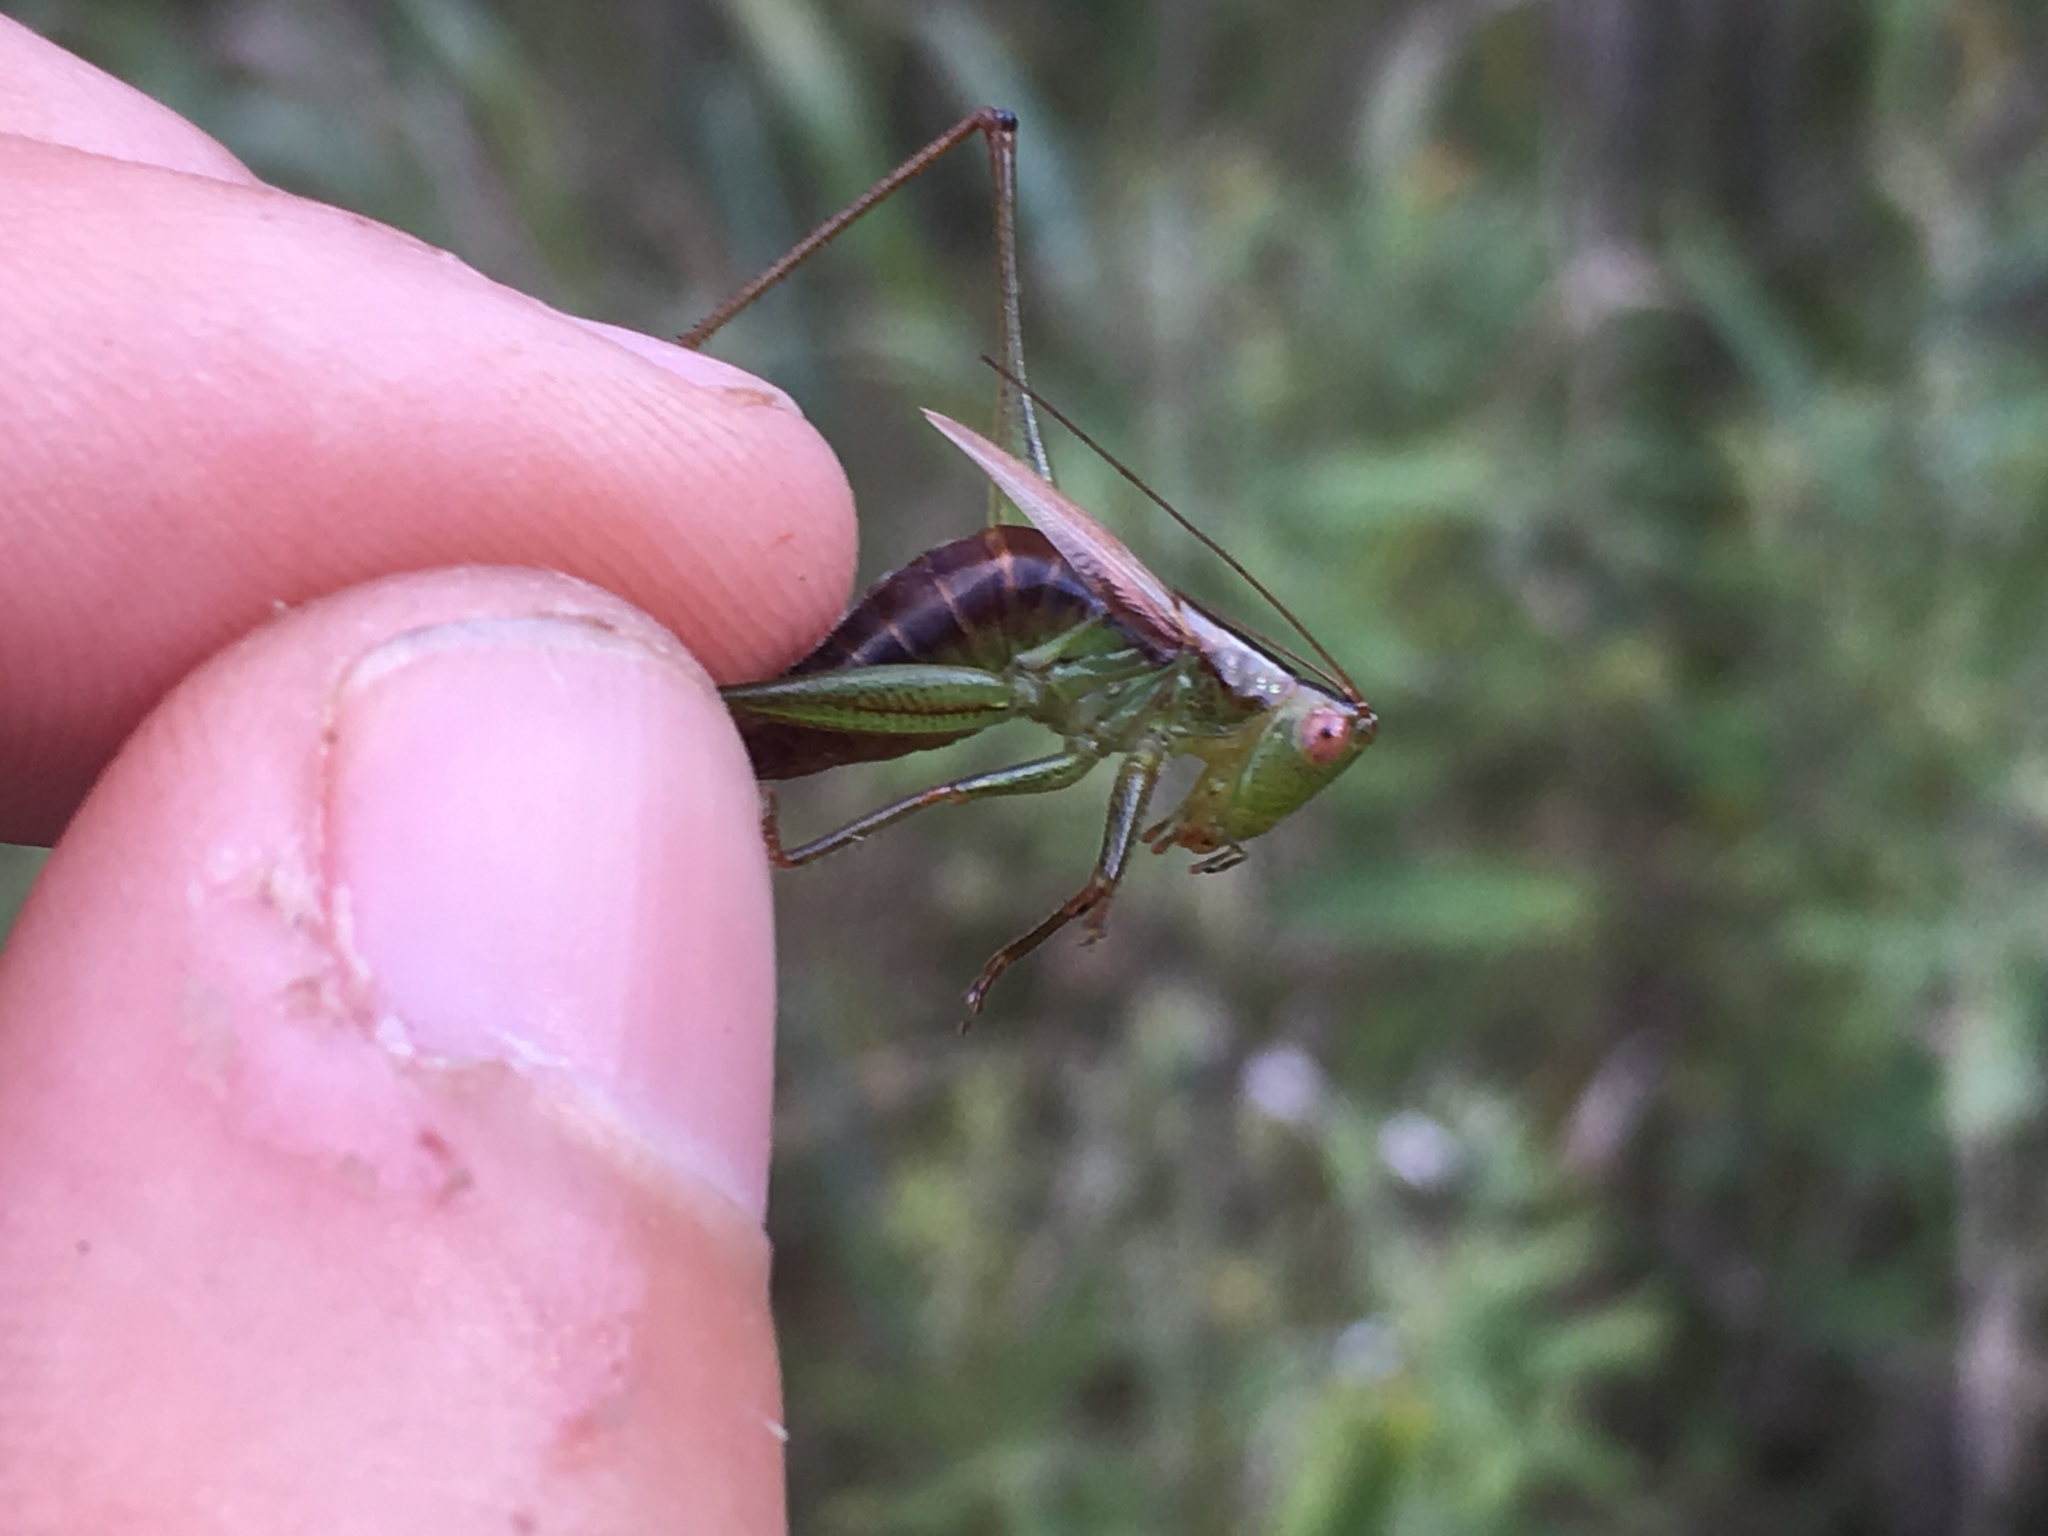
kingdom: Animalia
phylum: Arthropoda
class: Insecta
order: Orthoptera
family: Tettigoniidae
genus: Conocephalus
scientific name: Conocephalus brevipennis
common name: Short-winged meadow katydid
